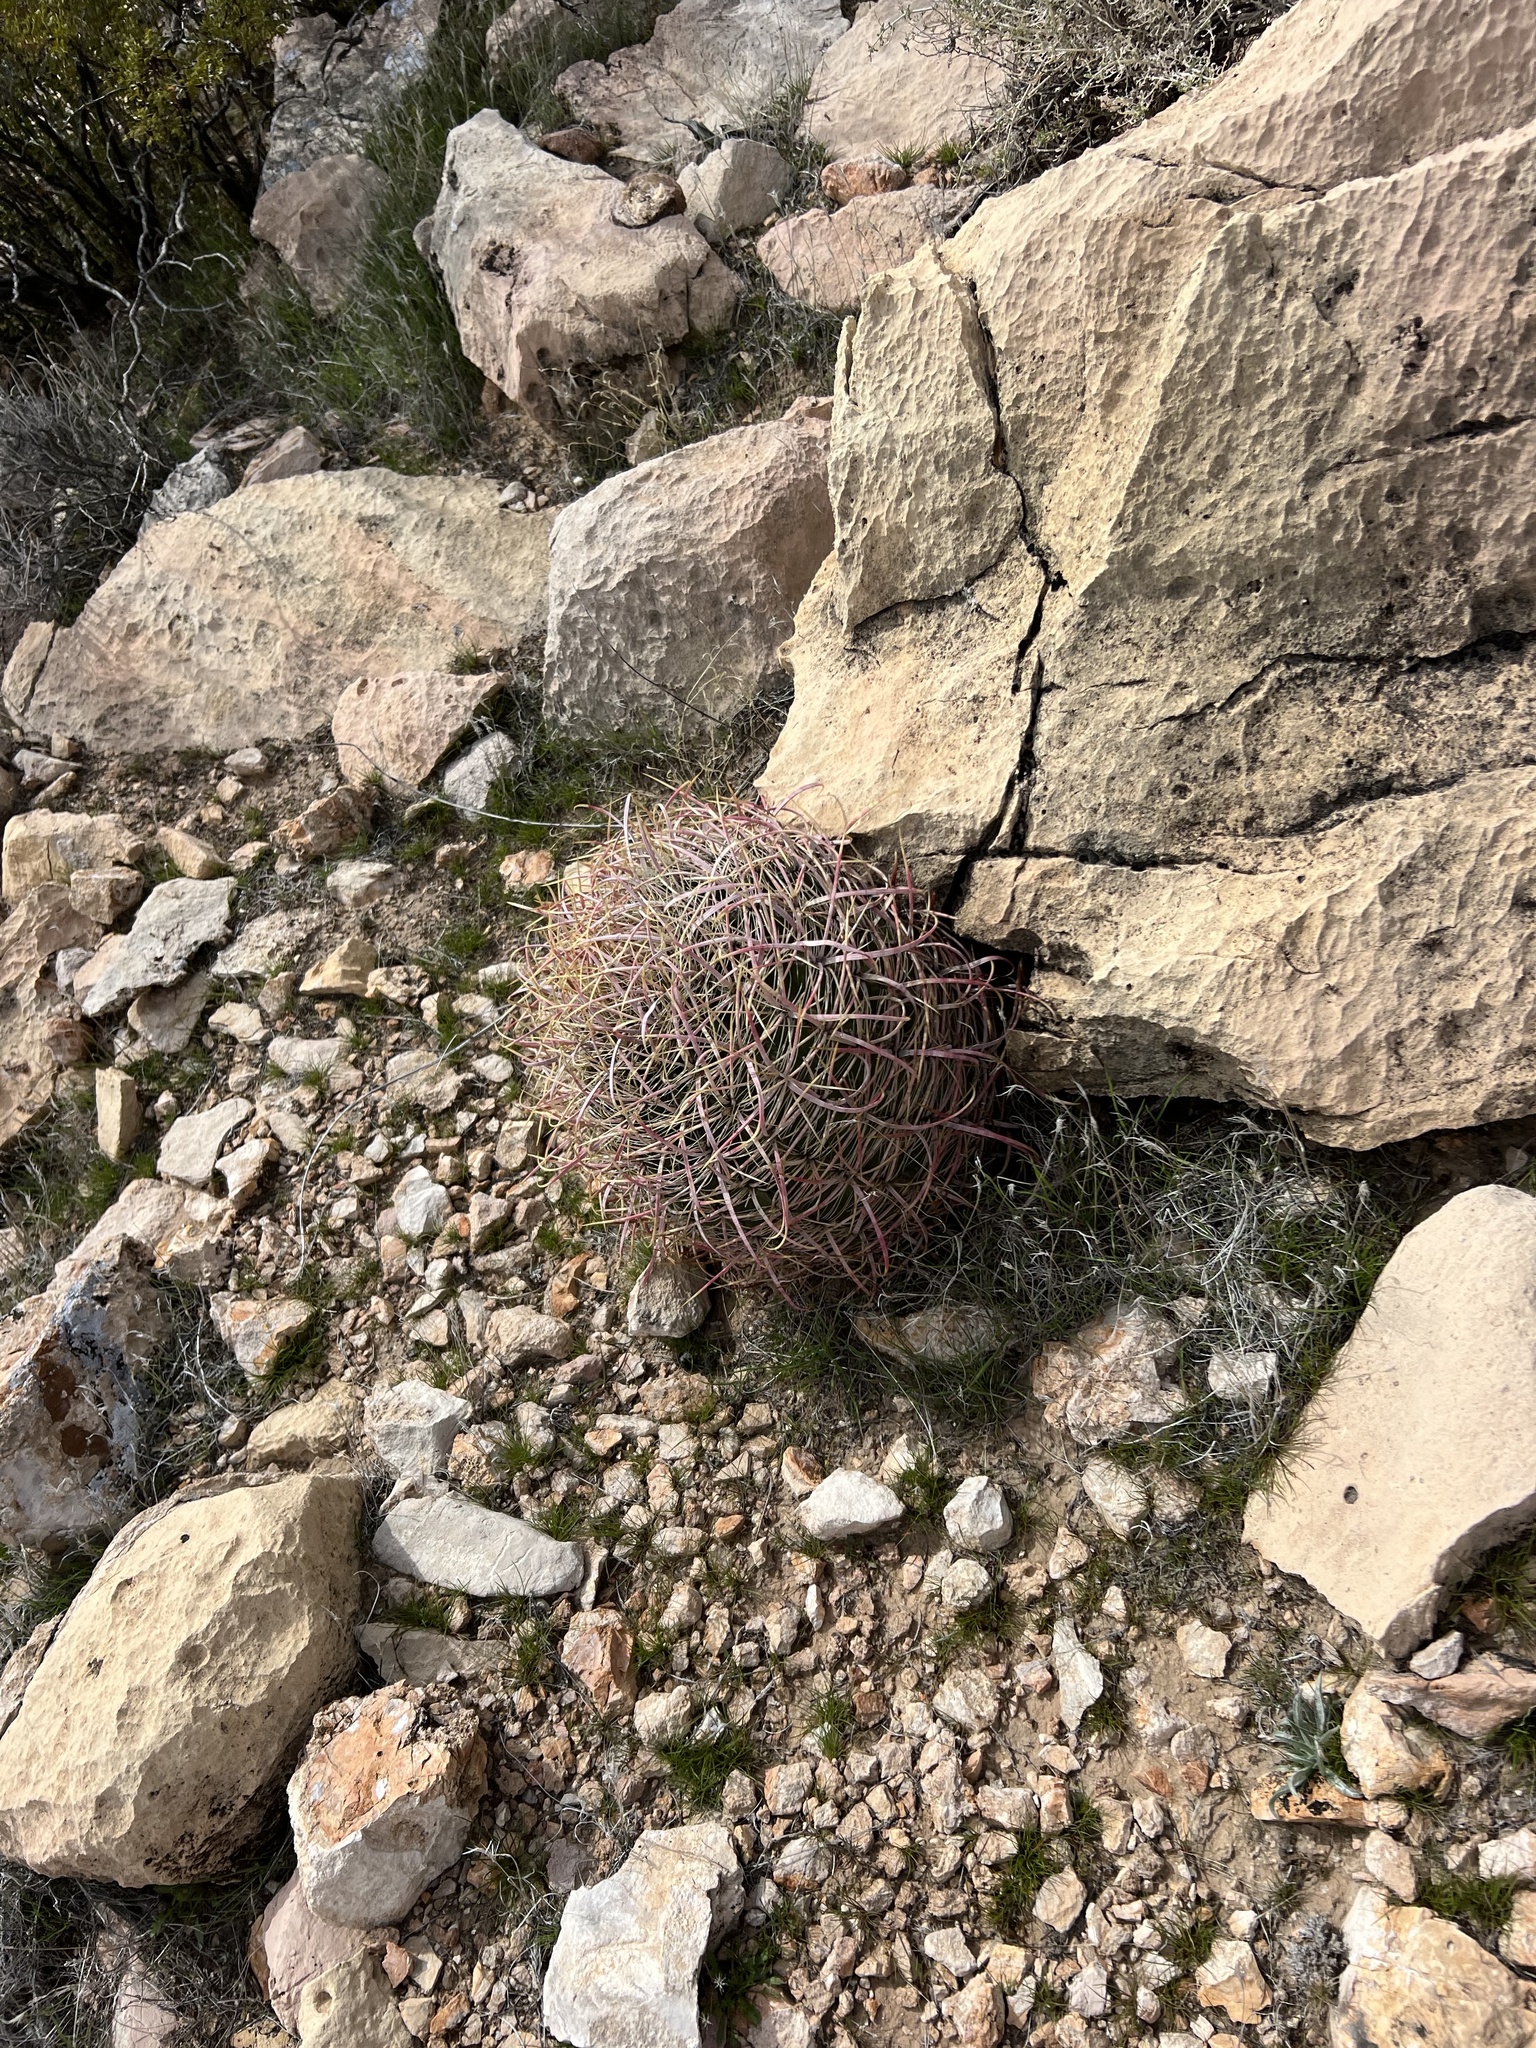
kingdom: Plantae
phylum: Tracheophyta
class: Magnoliopsida
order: Caryophyllales
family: Cactaceae
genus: Ferocactus
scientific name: Ferocactus cylindraceus
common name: California barrel cactus
